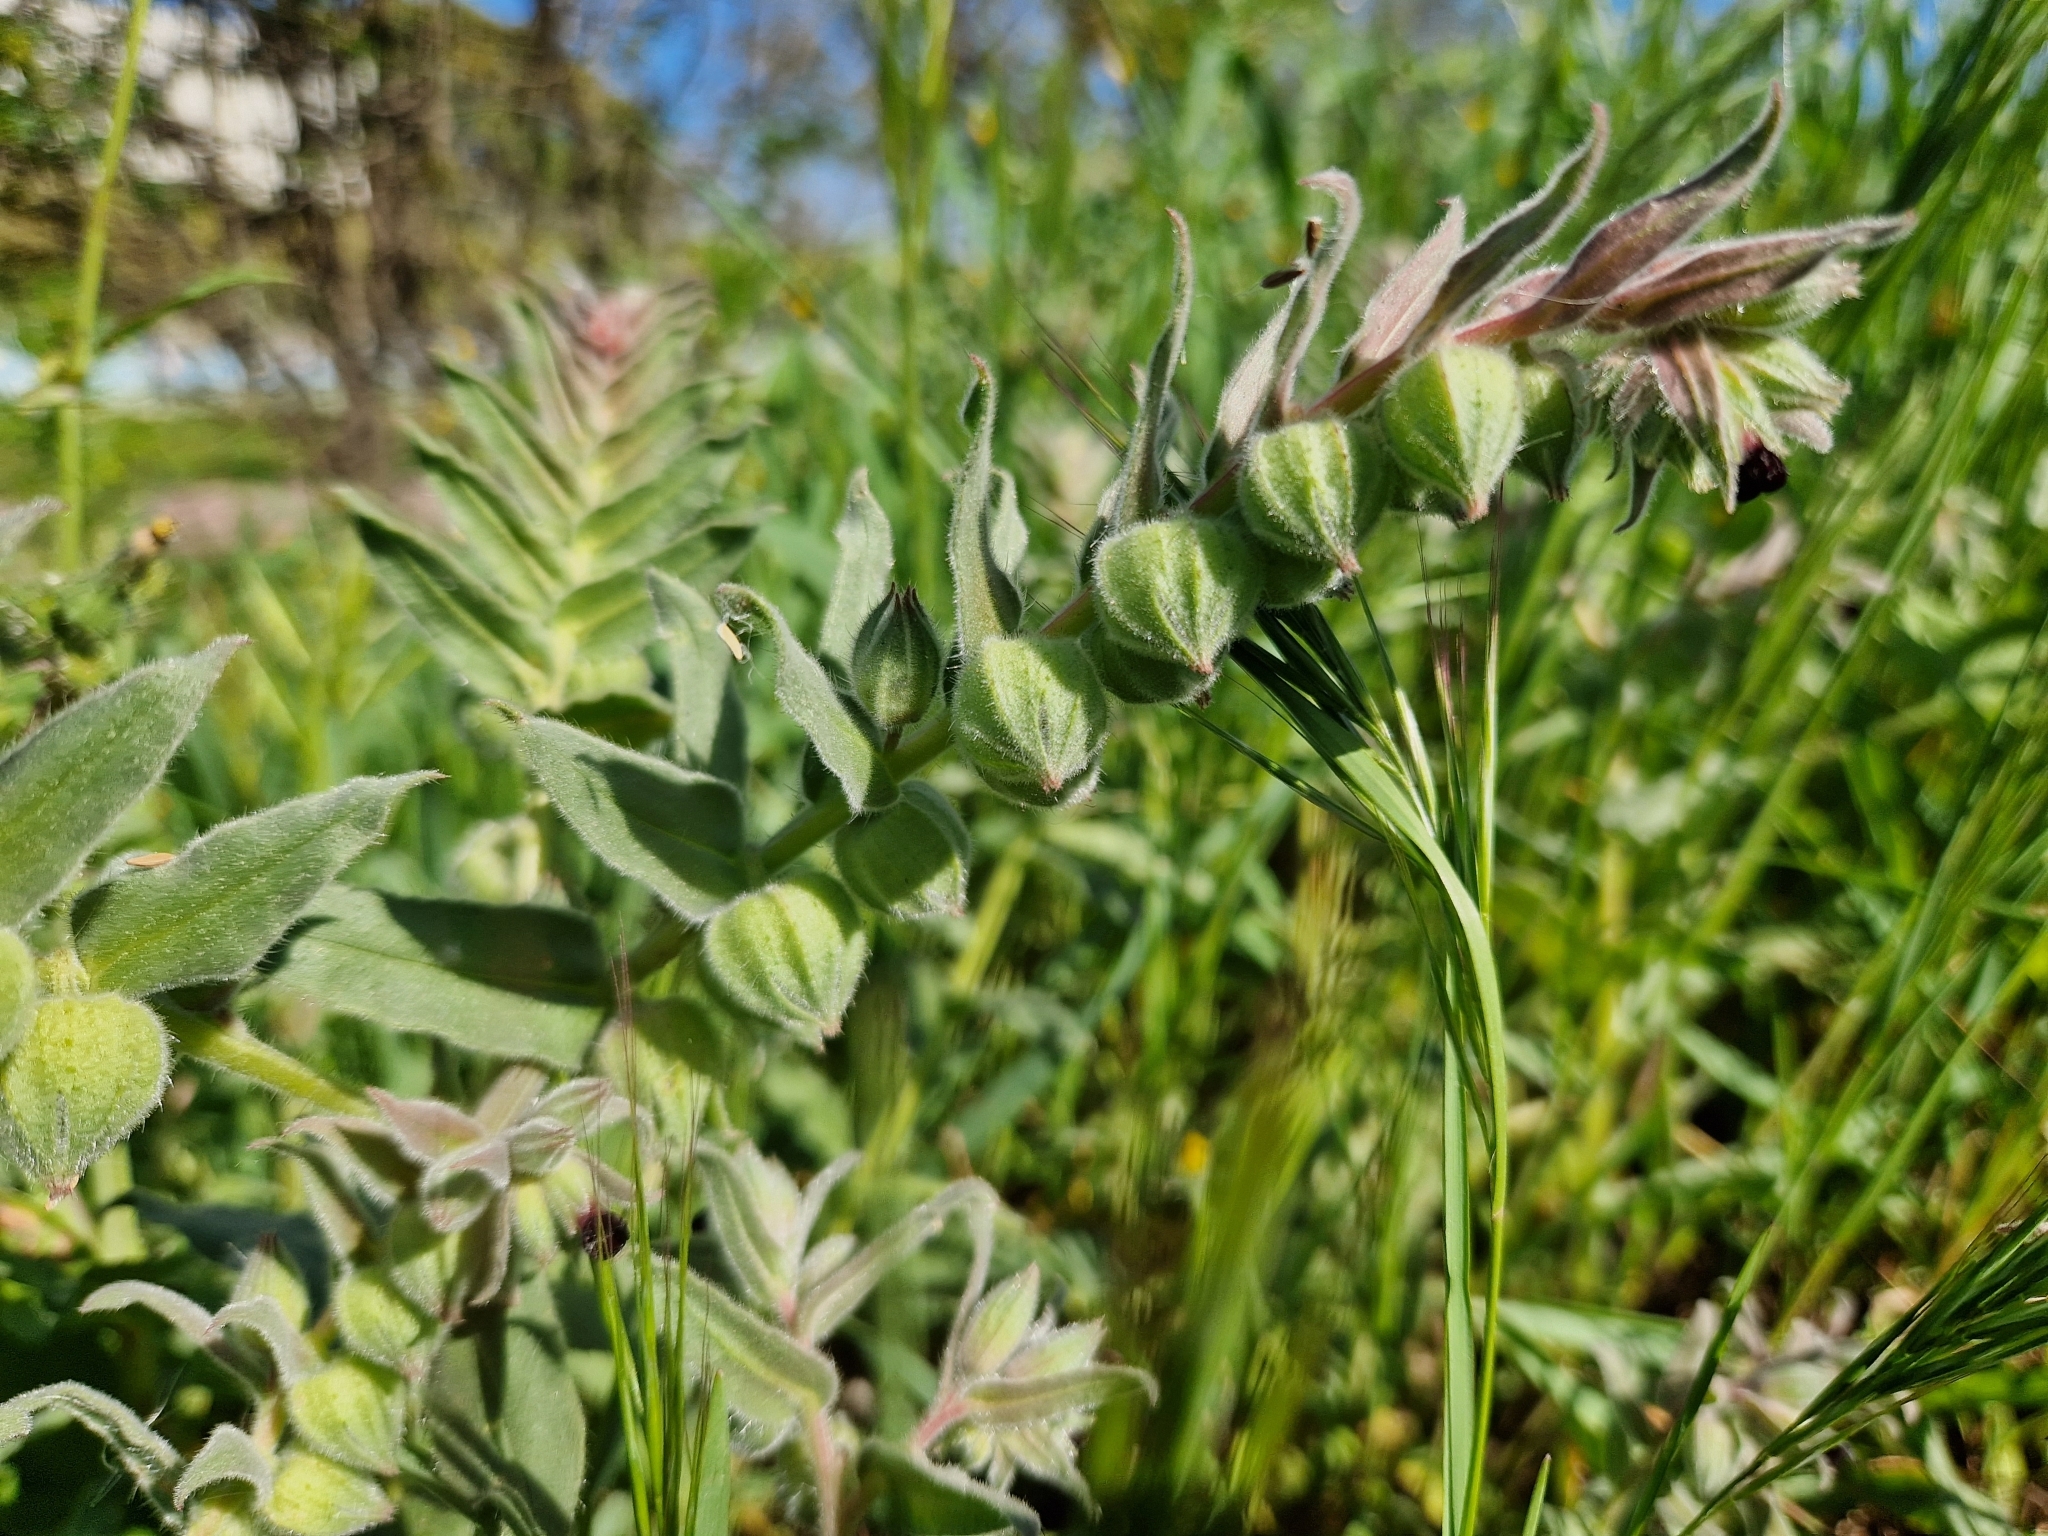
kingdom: Plantae
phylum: Tracheophyta
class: Magnoliopsida
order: Boraginales
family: Boraginaceae
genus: Nonea
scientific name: Nonea vesicaria
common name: Red monkswort
